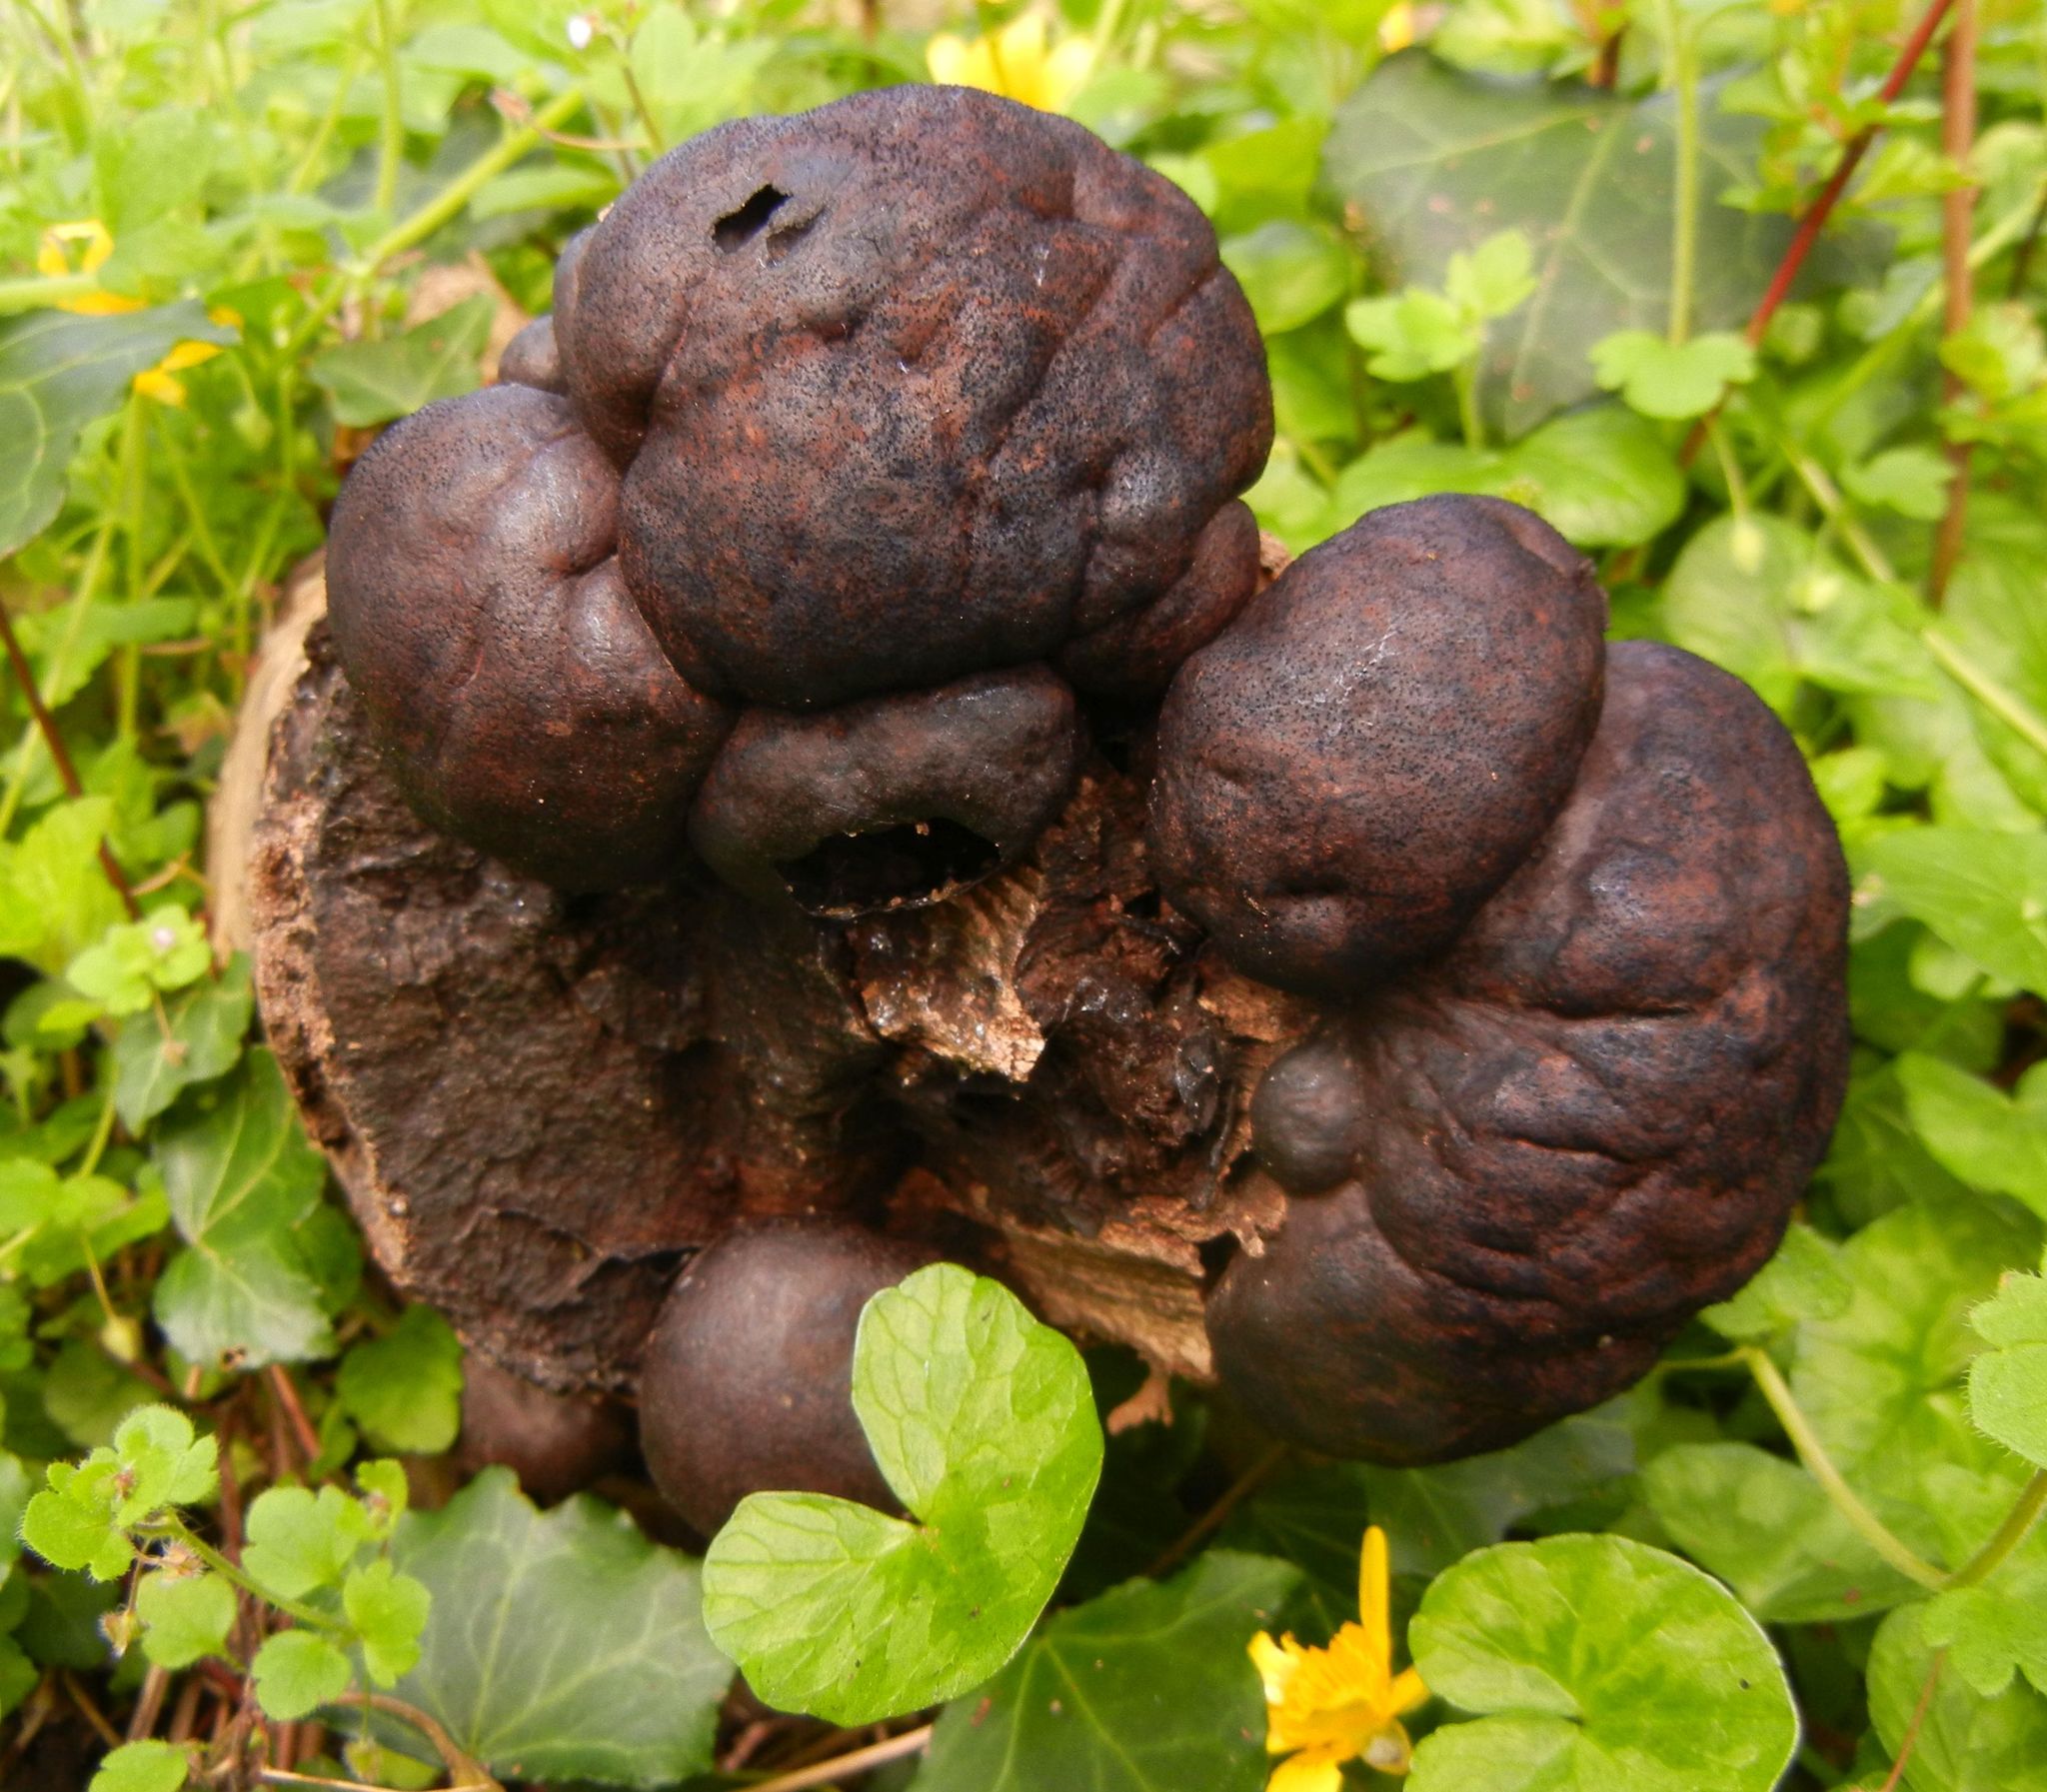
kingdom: Fungi
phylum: Ascomycota
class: Sordariomycetes
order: Xylariales
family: Hypoxylaceae
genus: Daldinia
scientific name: Daldinia concentrica
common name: Cramp balls
